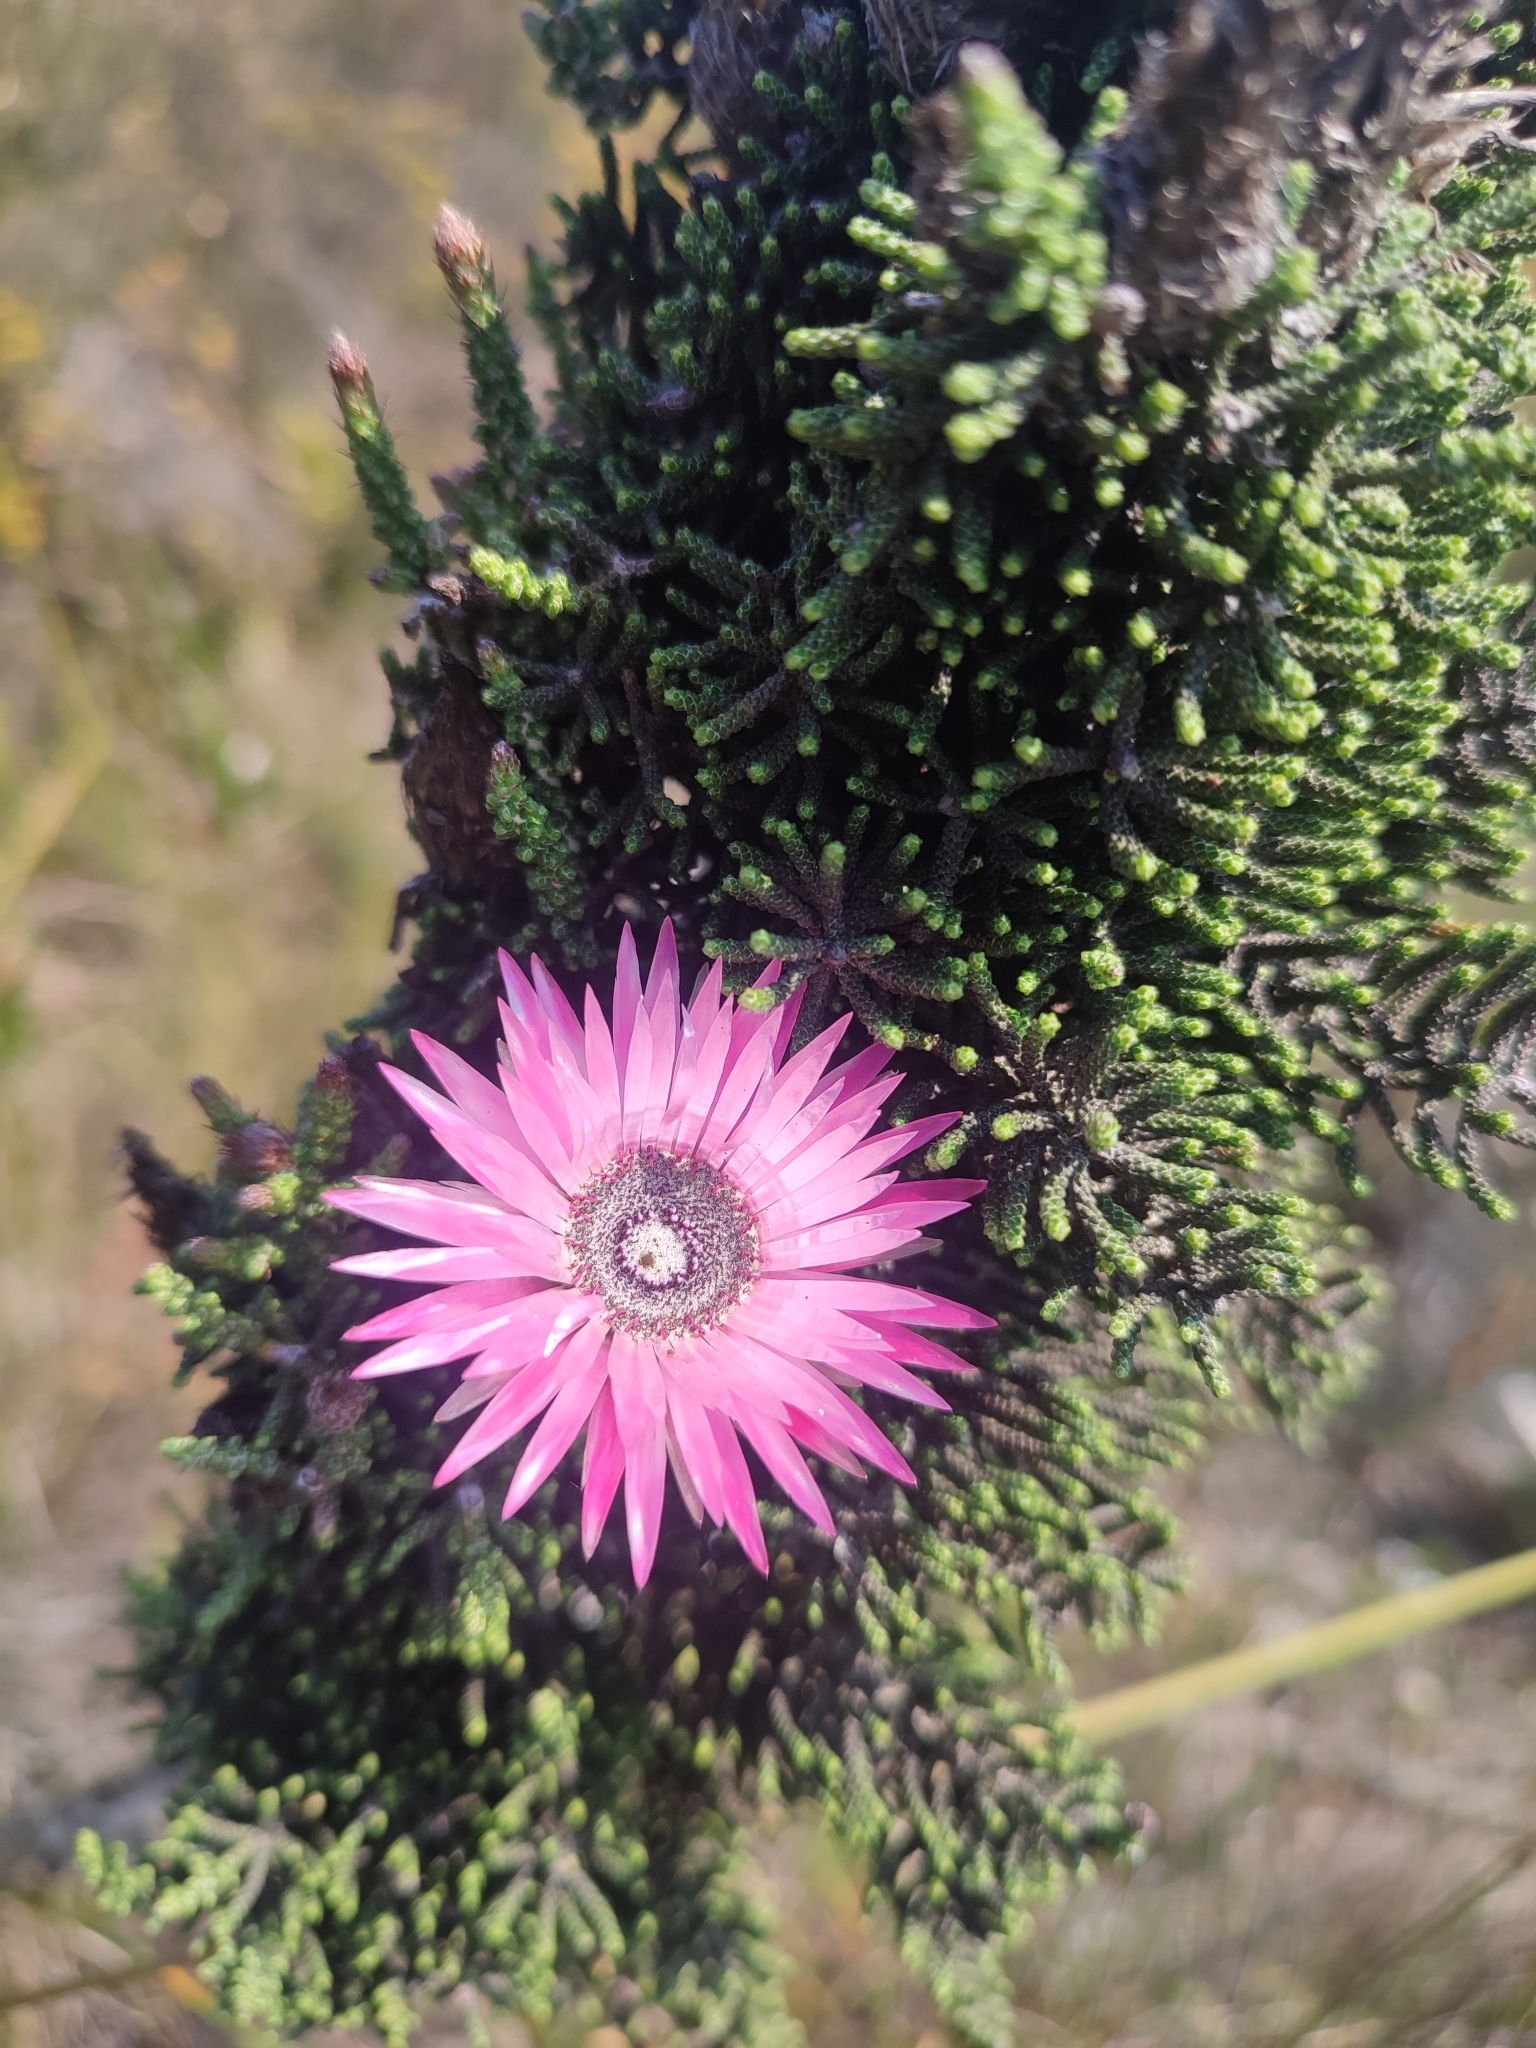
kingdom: Plantae
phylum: Tracheophyta
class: Magnoliopsida
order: Asterales
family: Asteraceae
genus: Phaenocoma
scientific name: Phaenocoma prolifera
